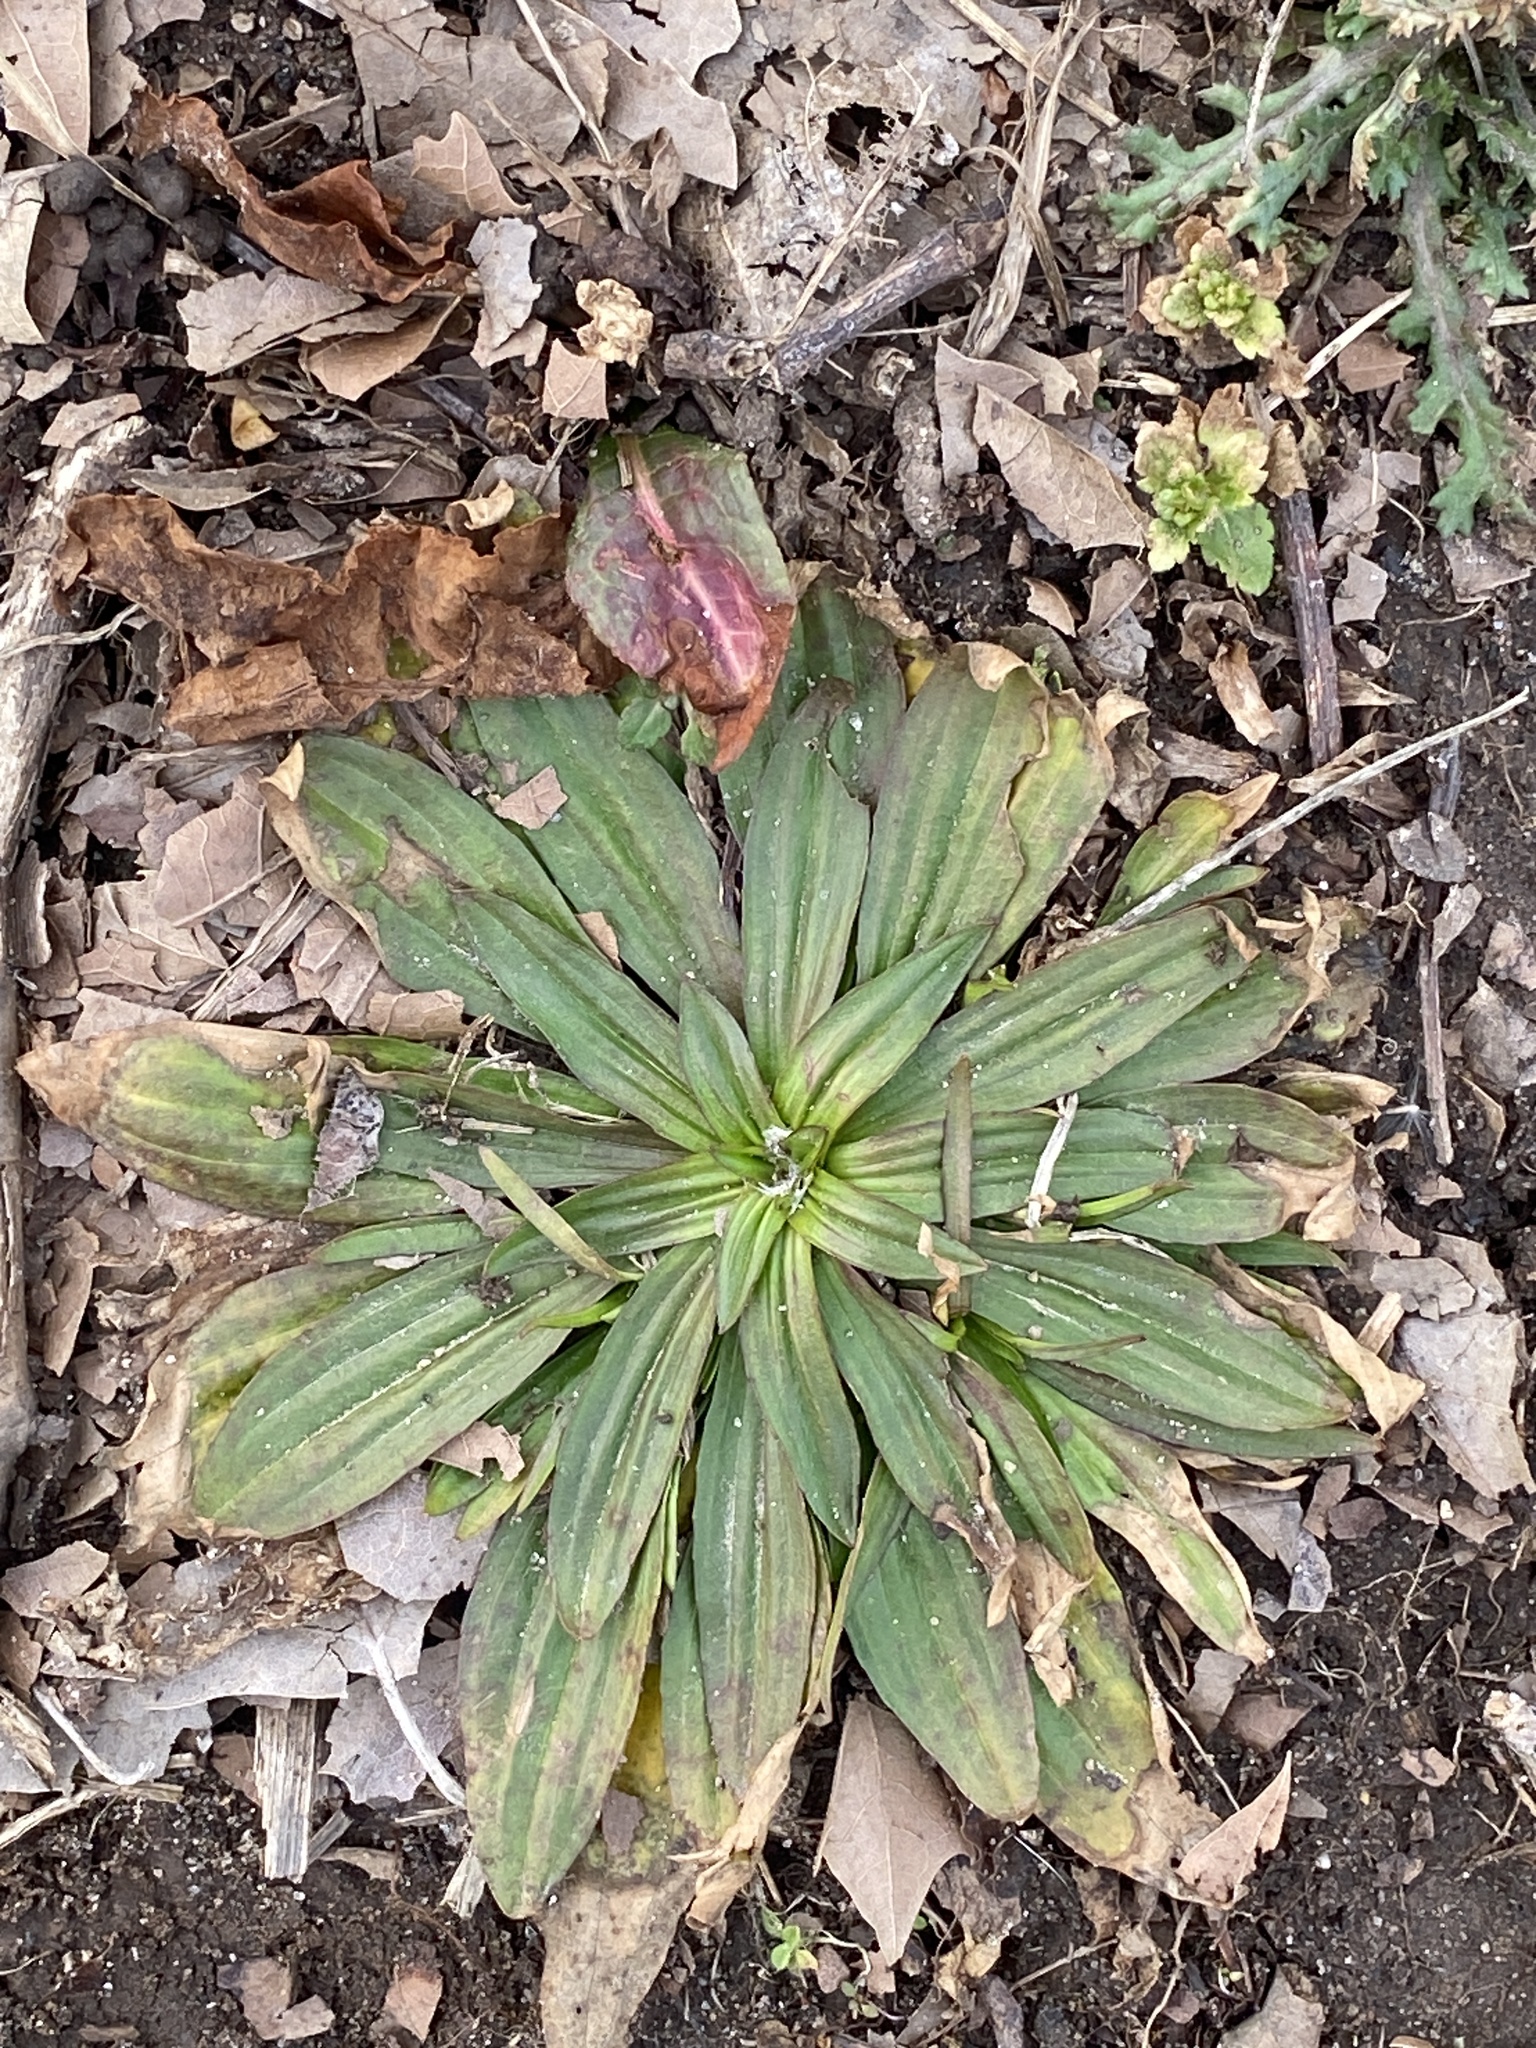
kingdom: Plantae
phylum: Tracheophyta
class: Magnoliopsida
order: Lamiales
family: Plantaginaceae
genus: Plantago
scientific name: Plantago lanceolata
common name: Ribwort plantain
